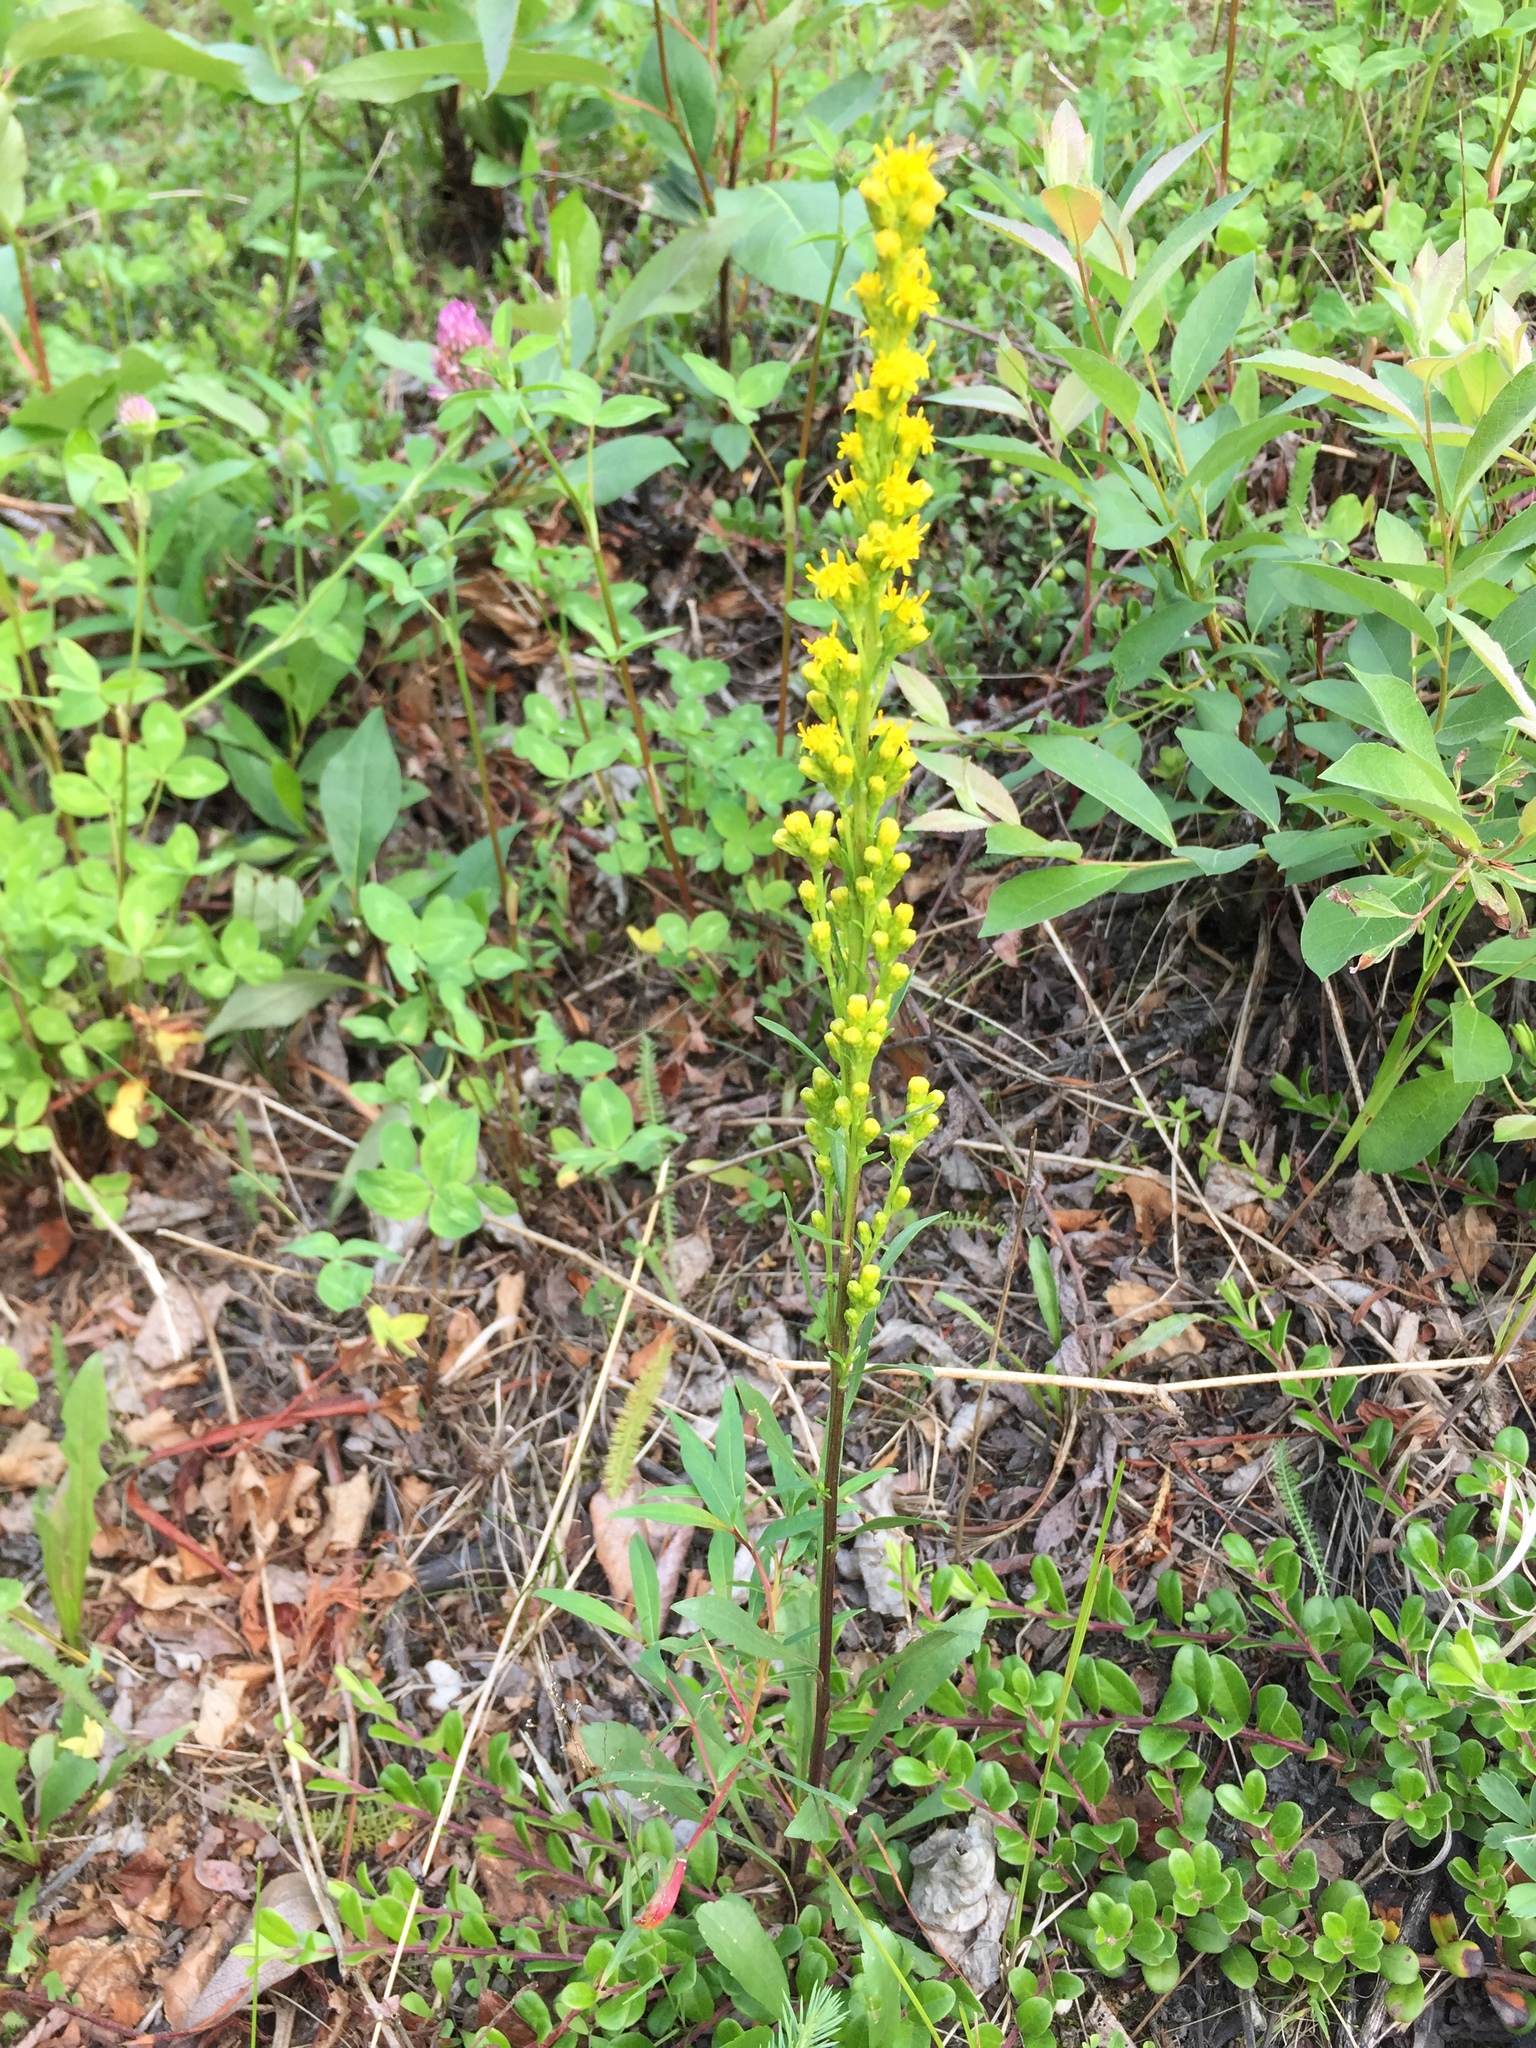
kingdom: Plantae
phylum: Tracheophyta
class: Magnoliopsida
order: Asterales
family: Asteraceae
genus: Solidago
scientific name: Solidago simplex
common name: Sticky goldenrod
